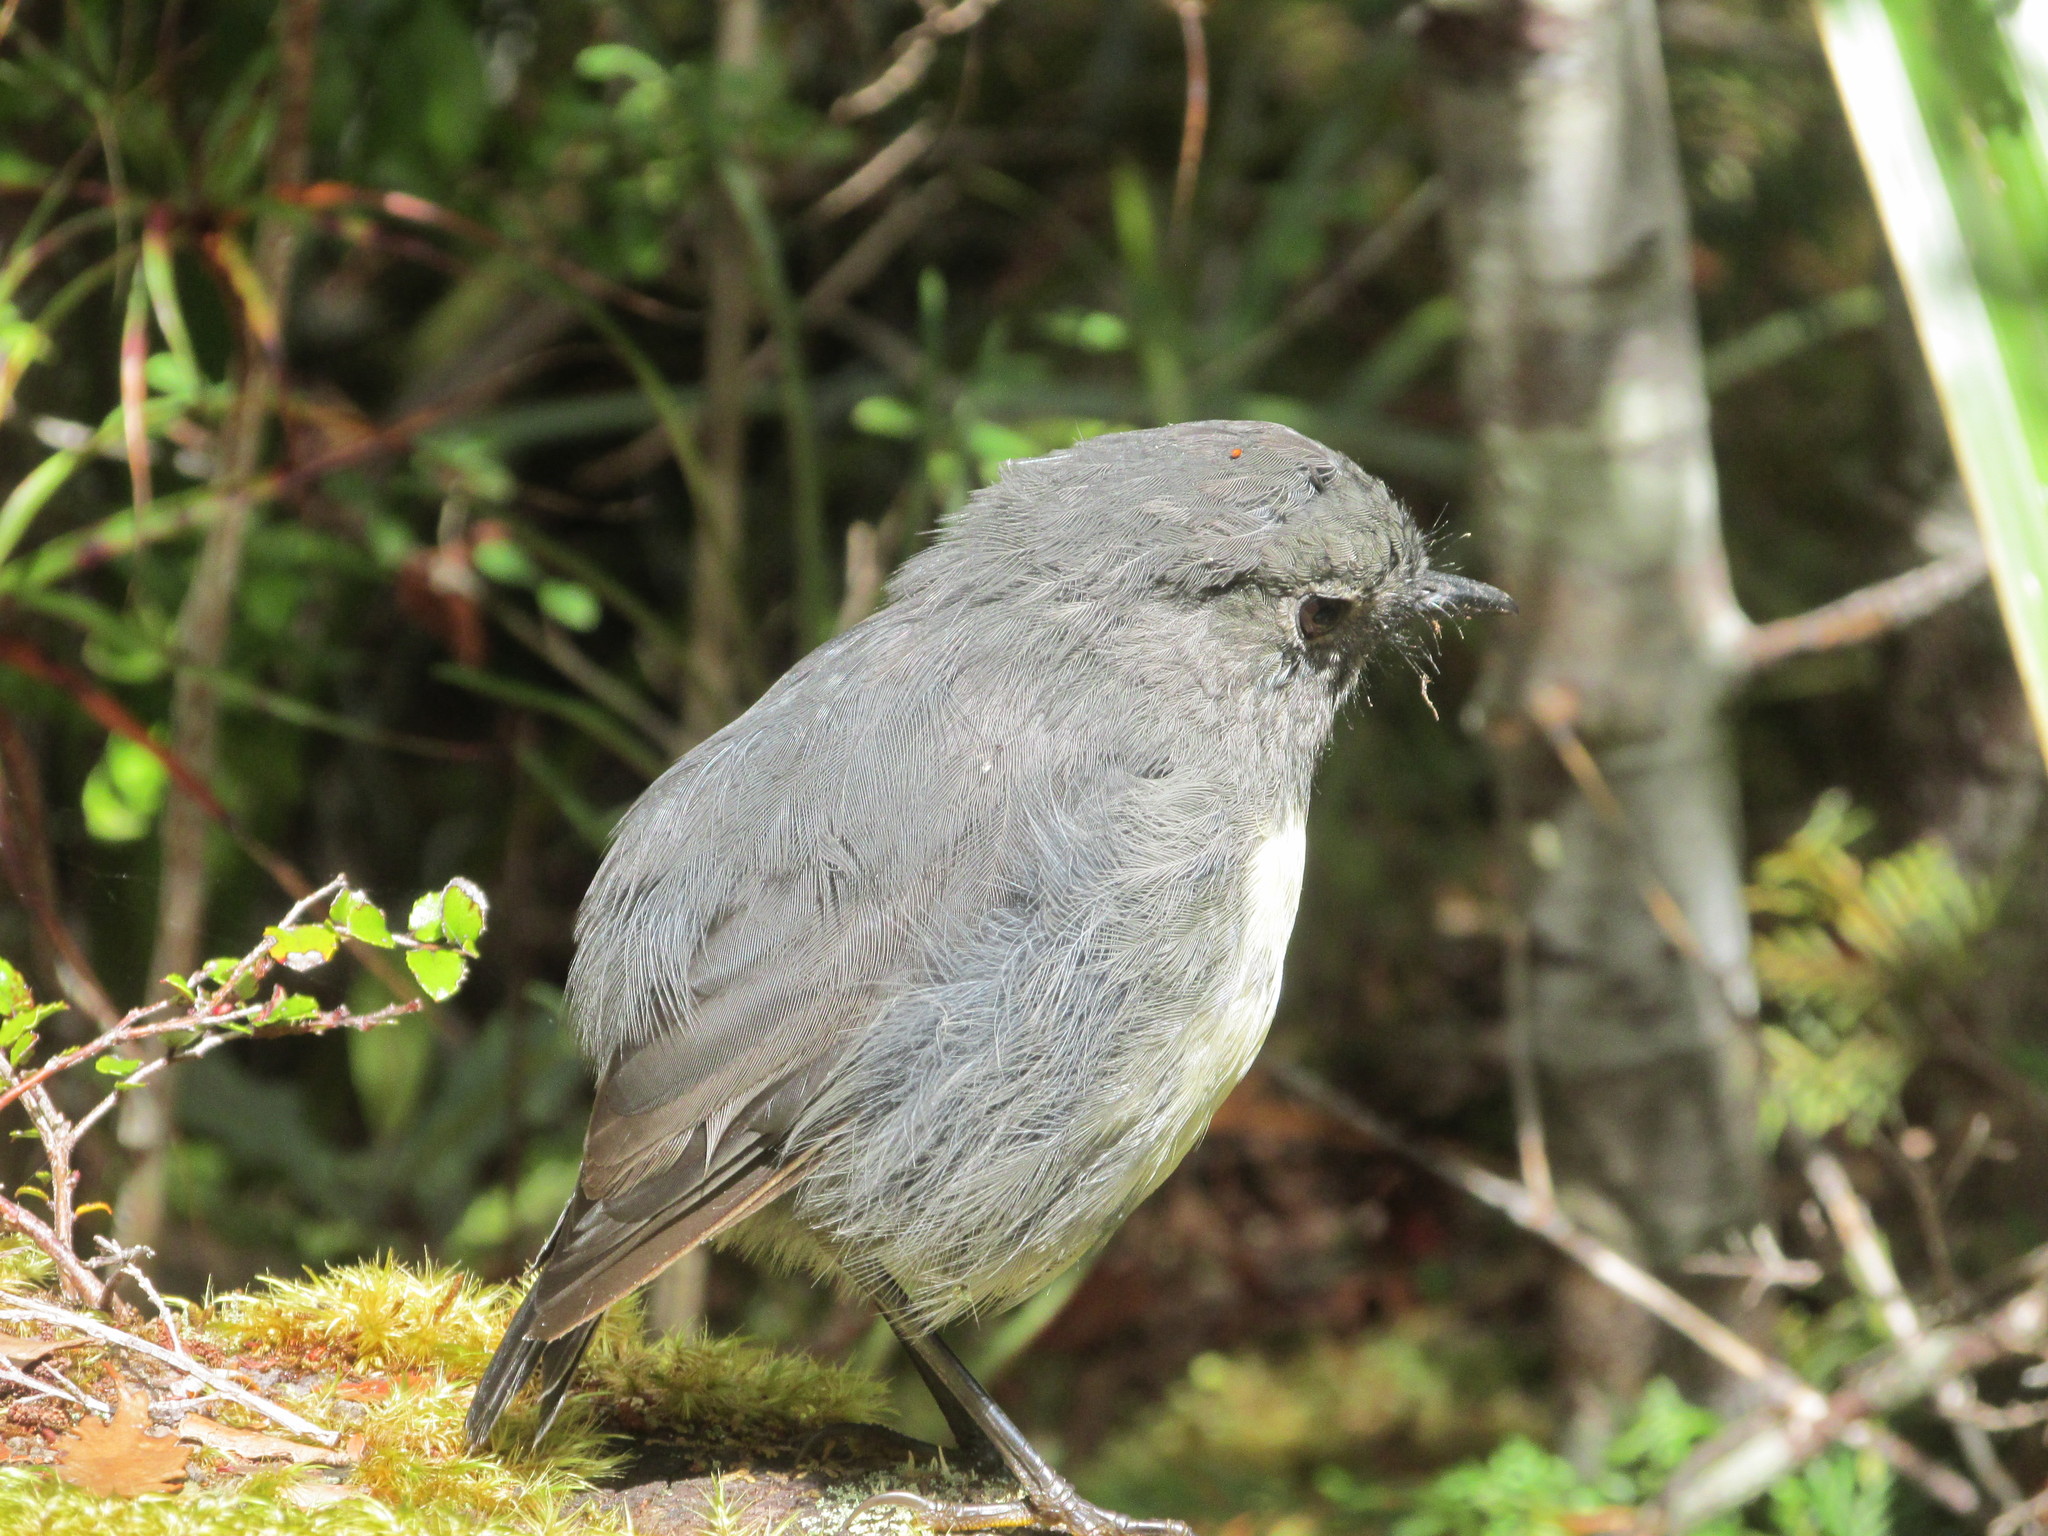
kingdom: Animalia
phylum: Chordata
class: Aves
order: Passeriformes
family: Petroicidae
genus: Petroica
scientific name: Petroica australis
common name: New zealand robin
